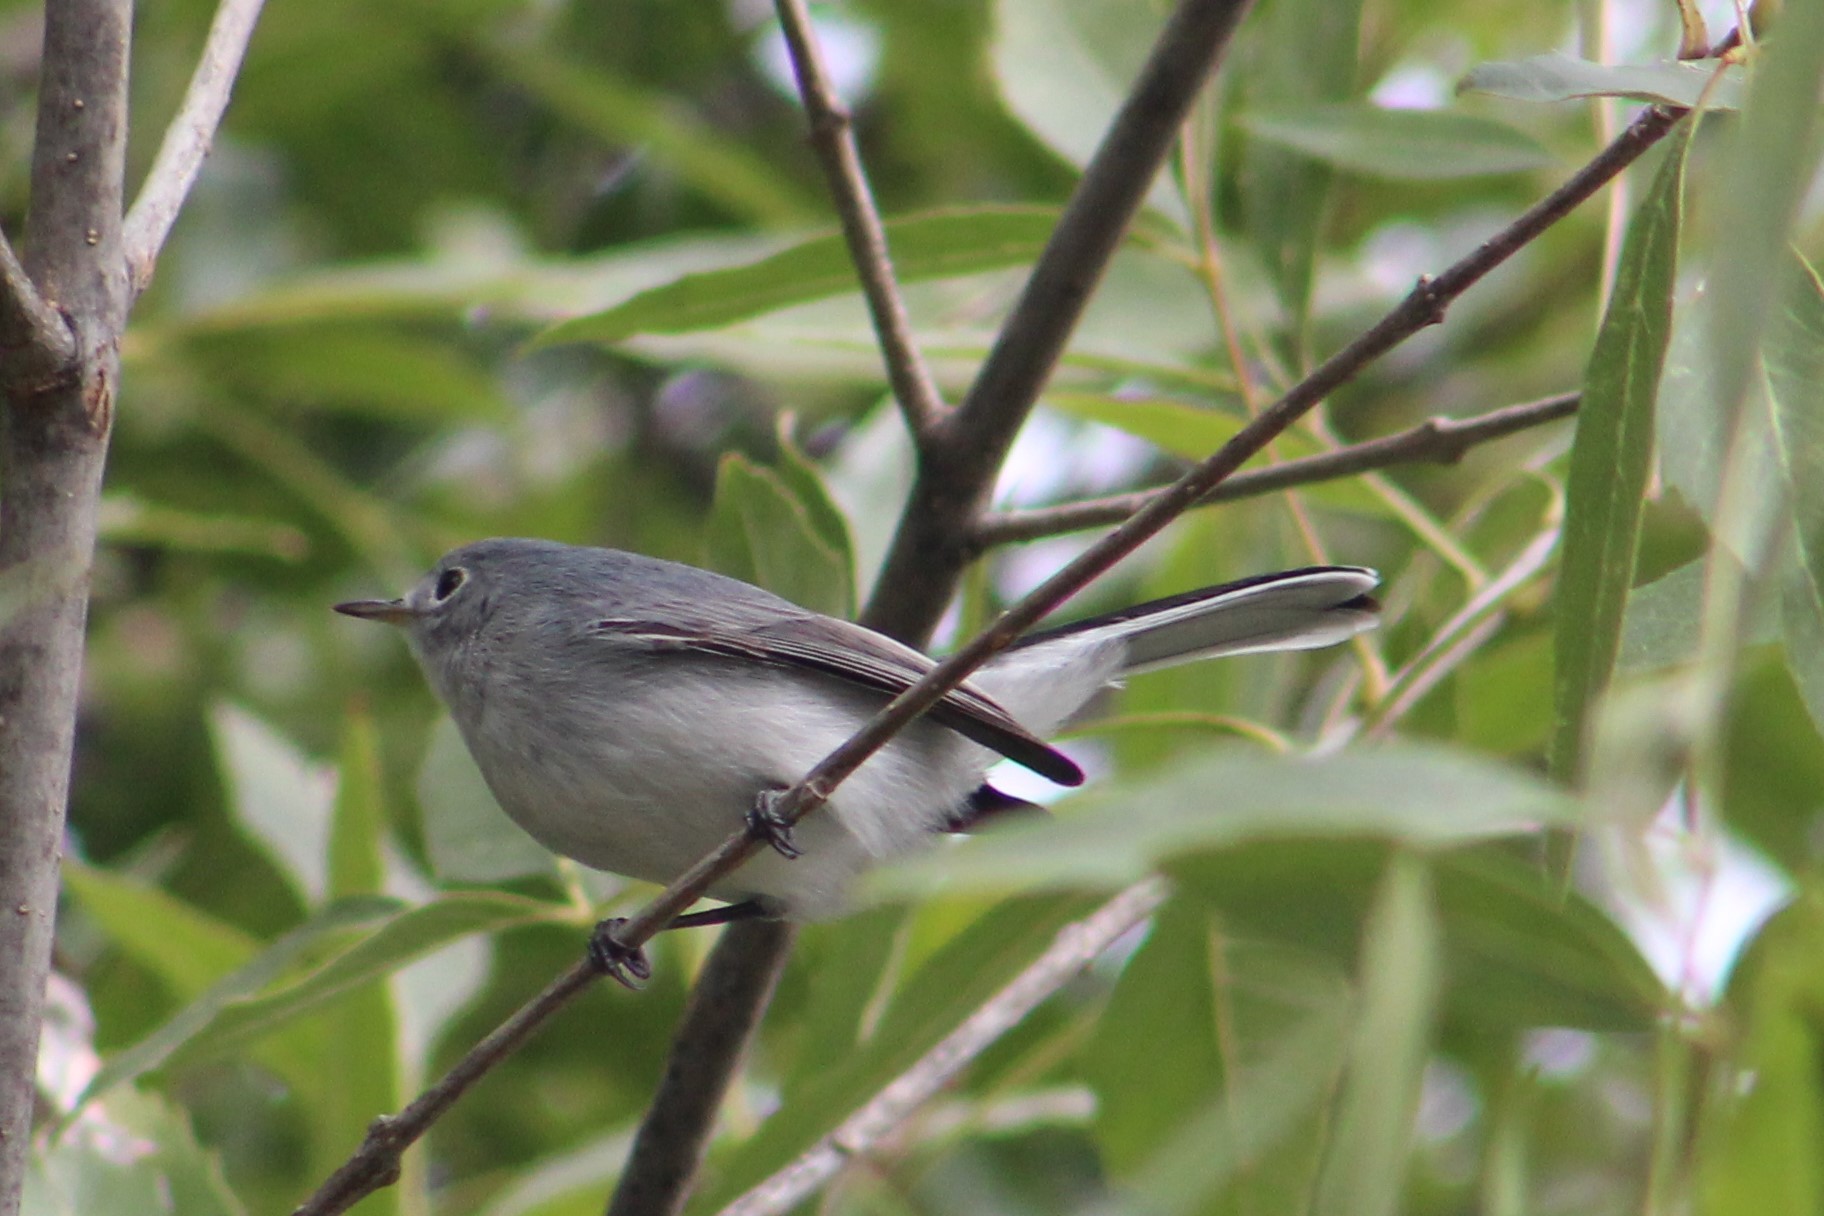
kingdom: Animalia
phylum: Chordata
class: Aves
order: Passeriformes
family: Polioptilidae
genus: Polioptila
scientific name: Polioptila caerulea
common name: Blue-gray gnatcatcher
